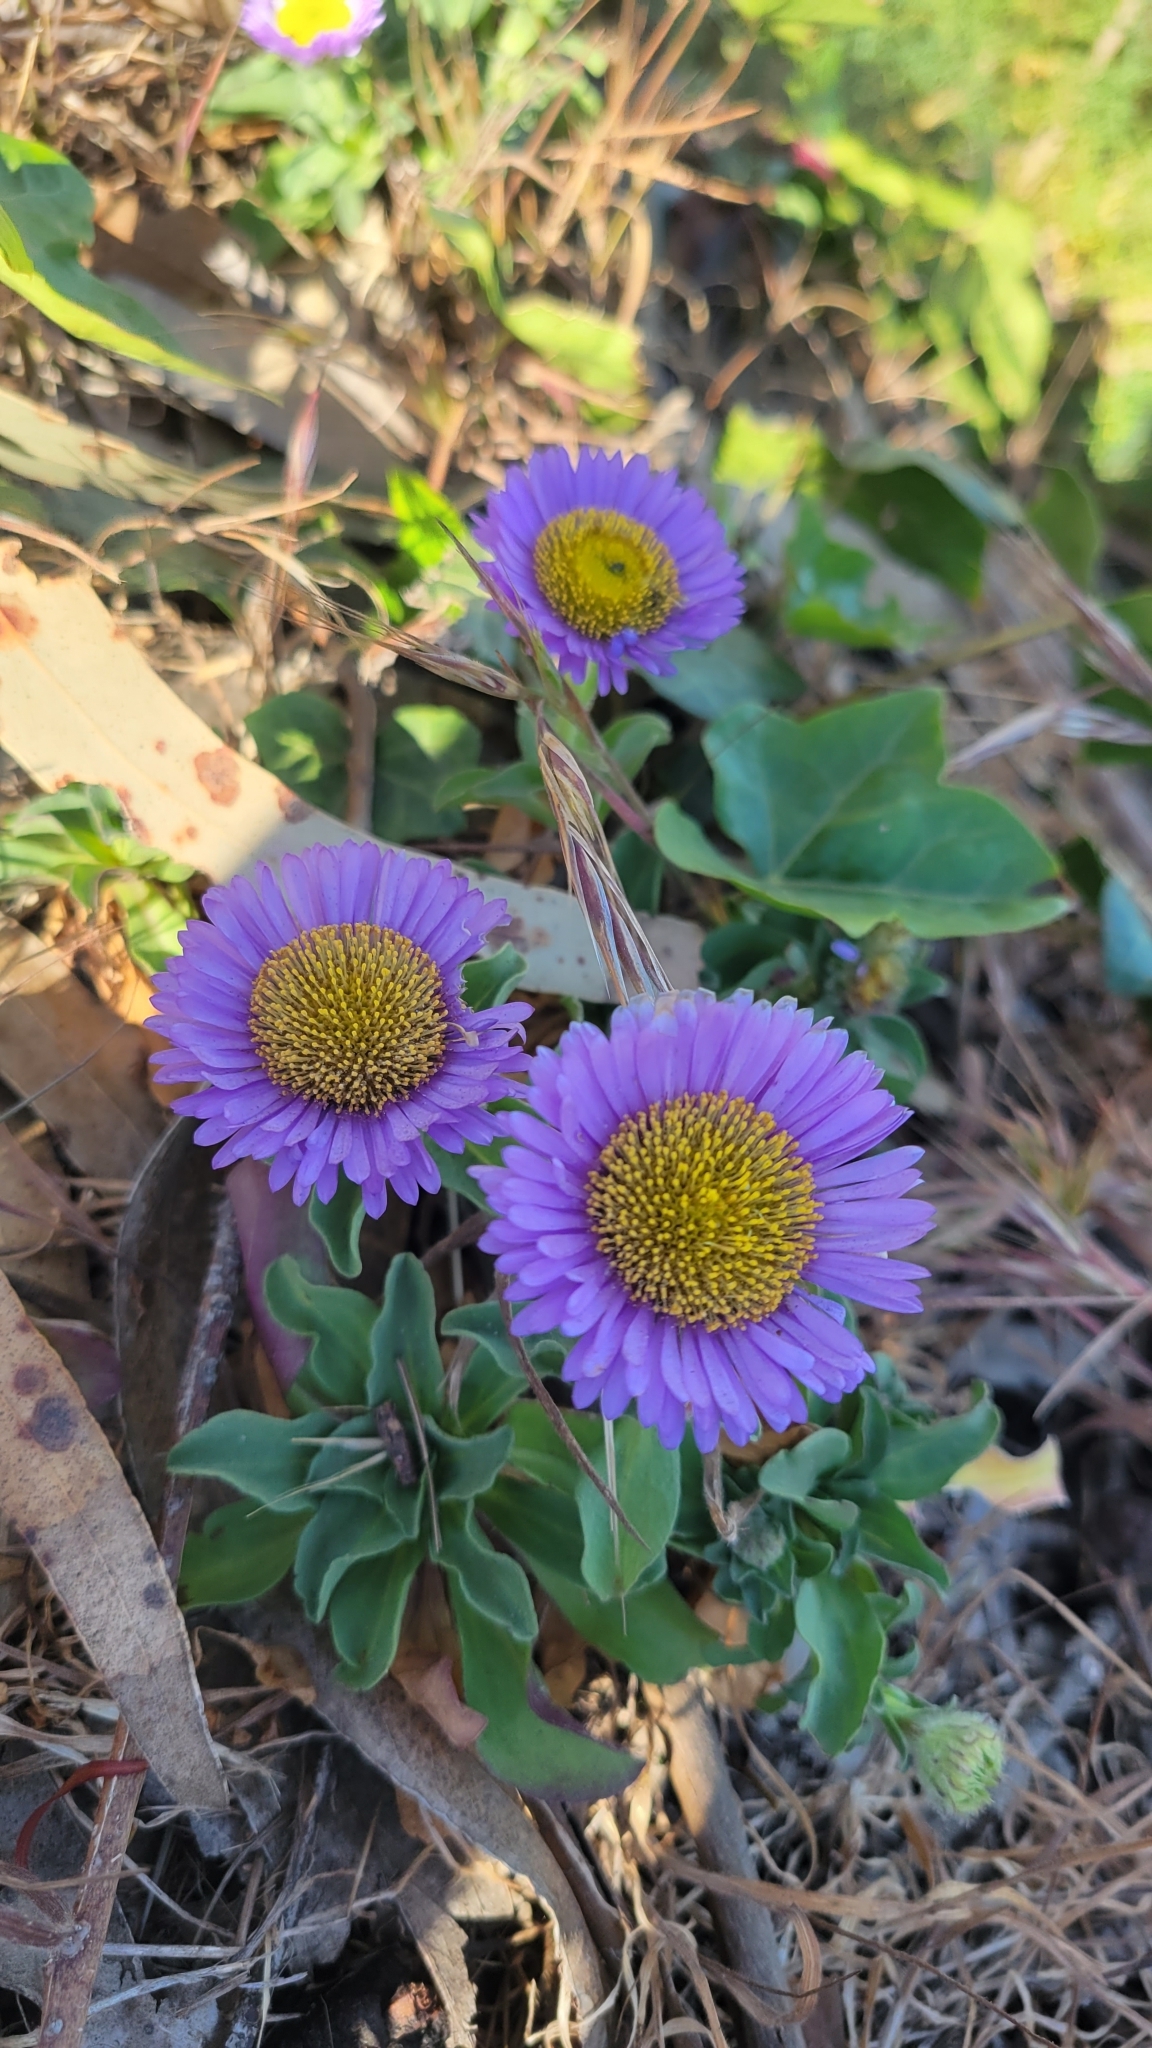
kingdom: Plantae
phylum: Tracheophyta
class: Magnoliopsida
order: Asterales
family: Asteraceae
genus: Erigeron
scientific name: Erigeron glaucus
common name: Seaside daisy
